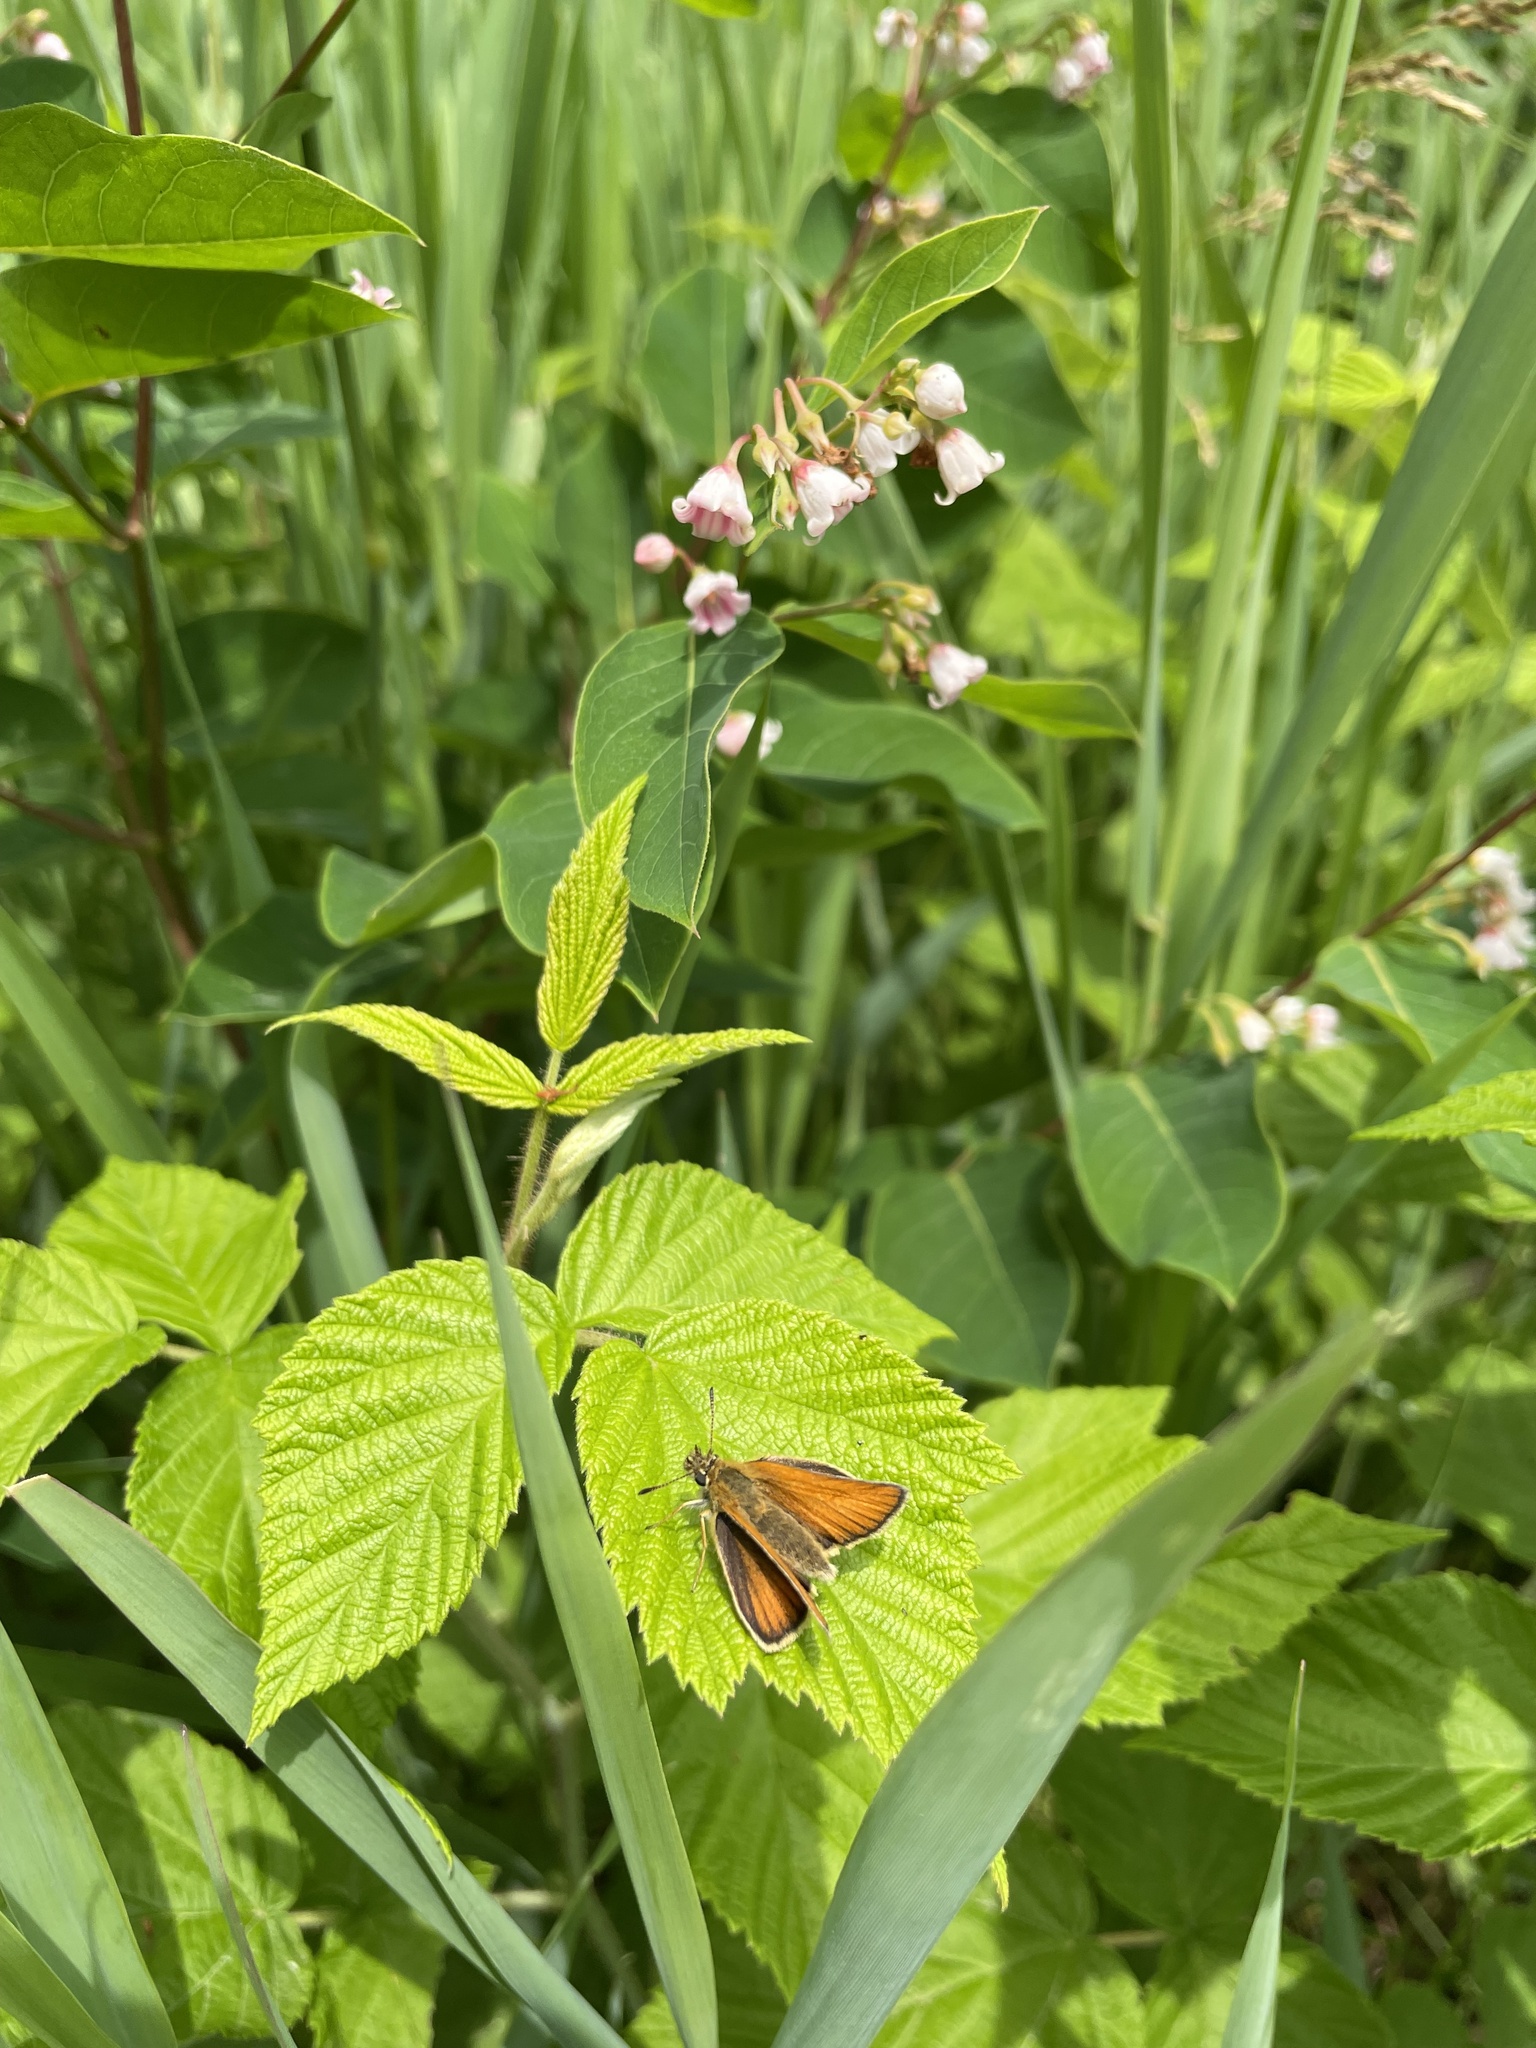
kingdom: Animalia
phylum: Arthropoda
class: Insecta
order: Lepidoptera
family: Hesperiidae
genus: Thymelicus
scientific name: Thymelicus lineola
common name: Essex skipper
